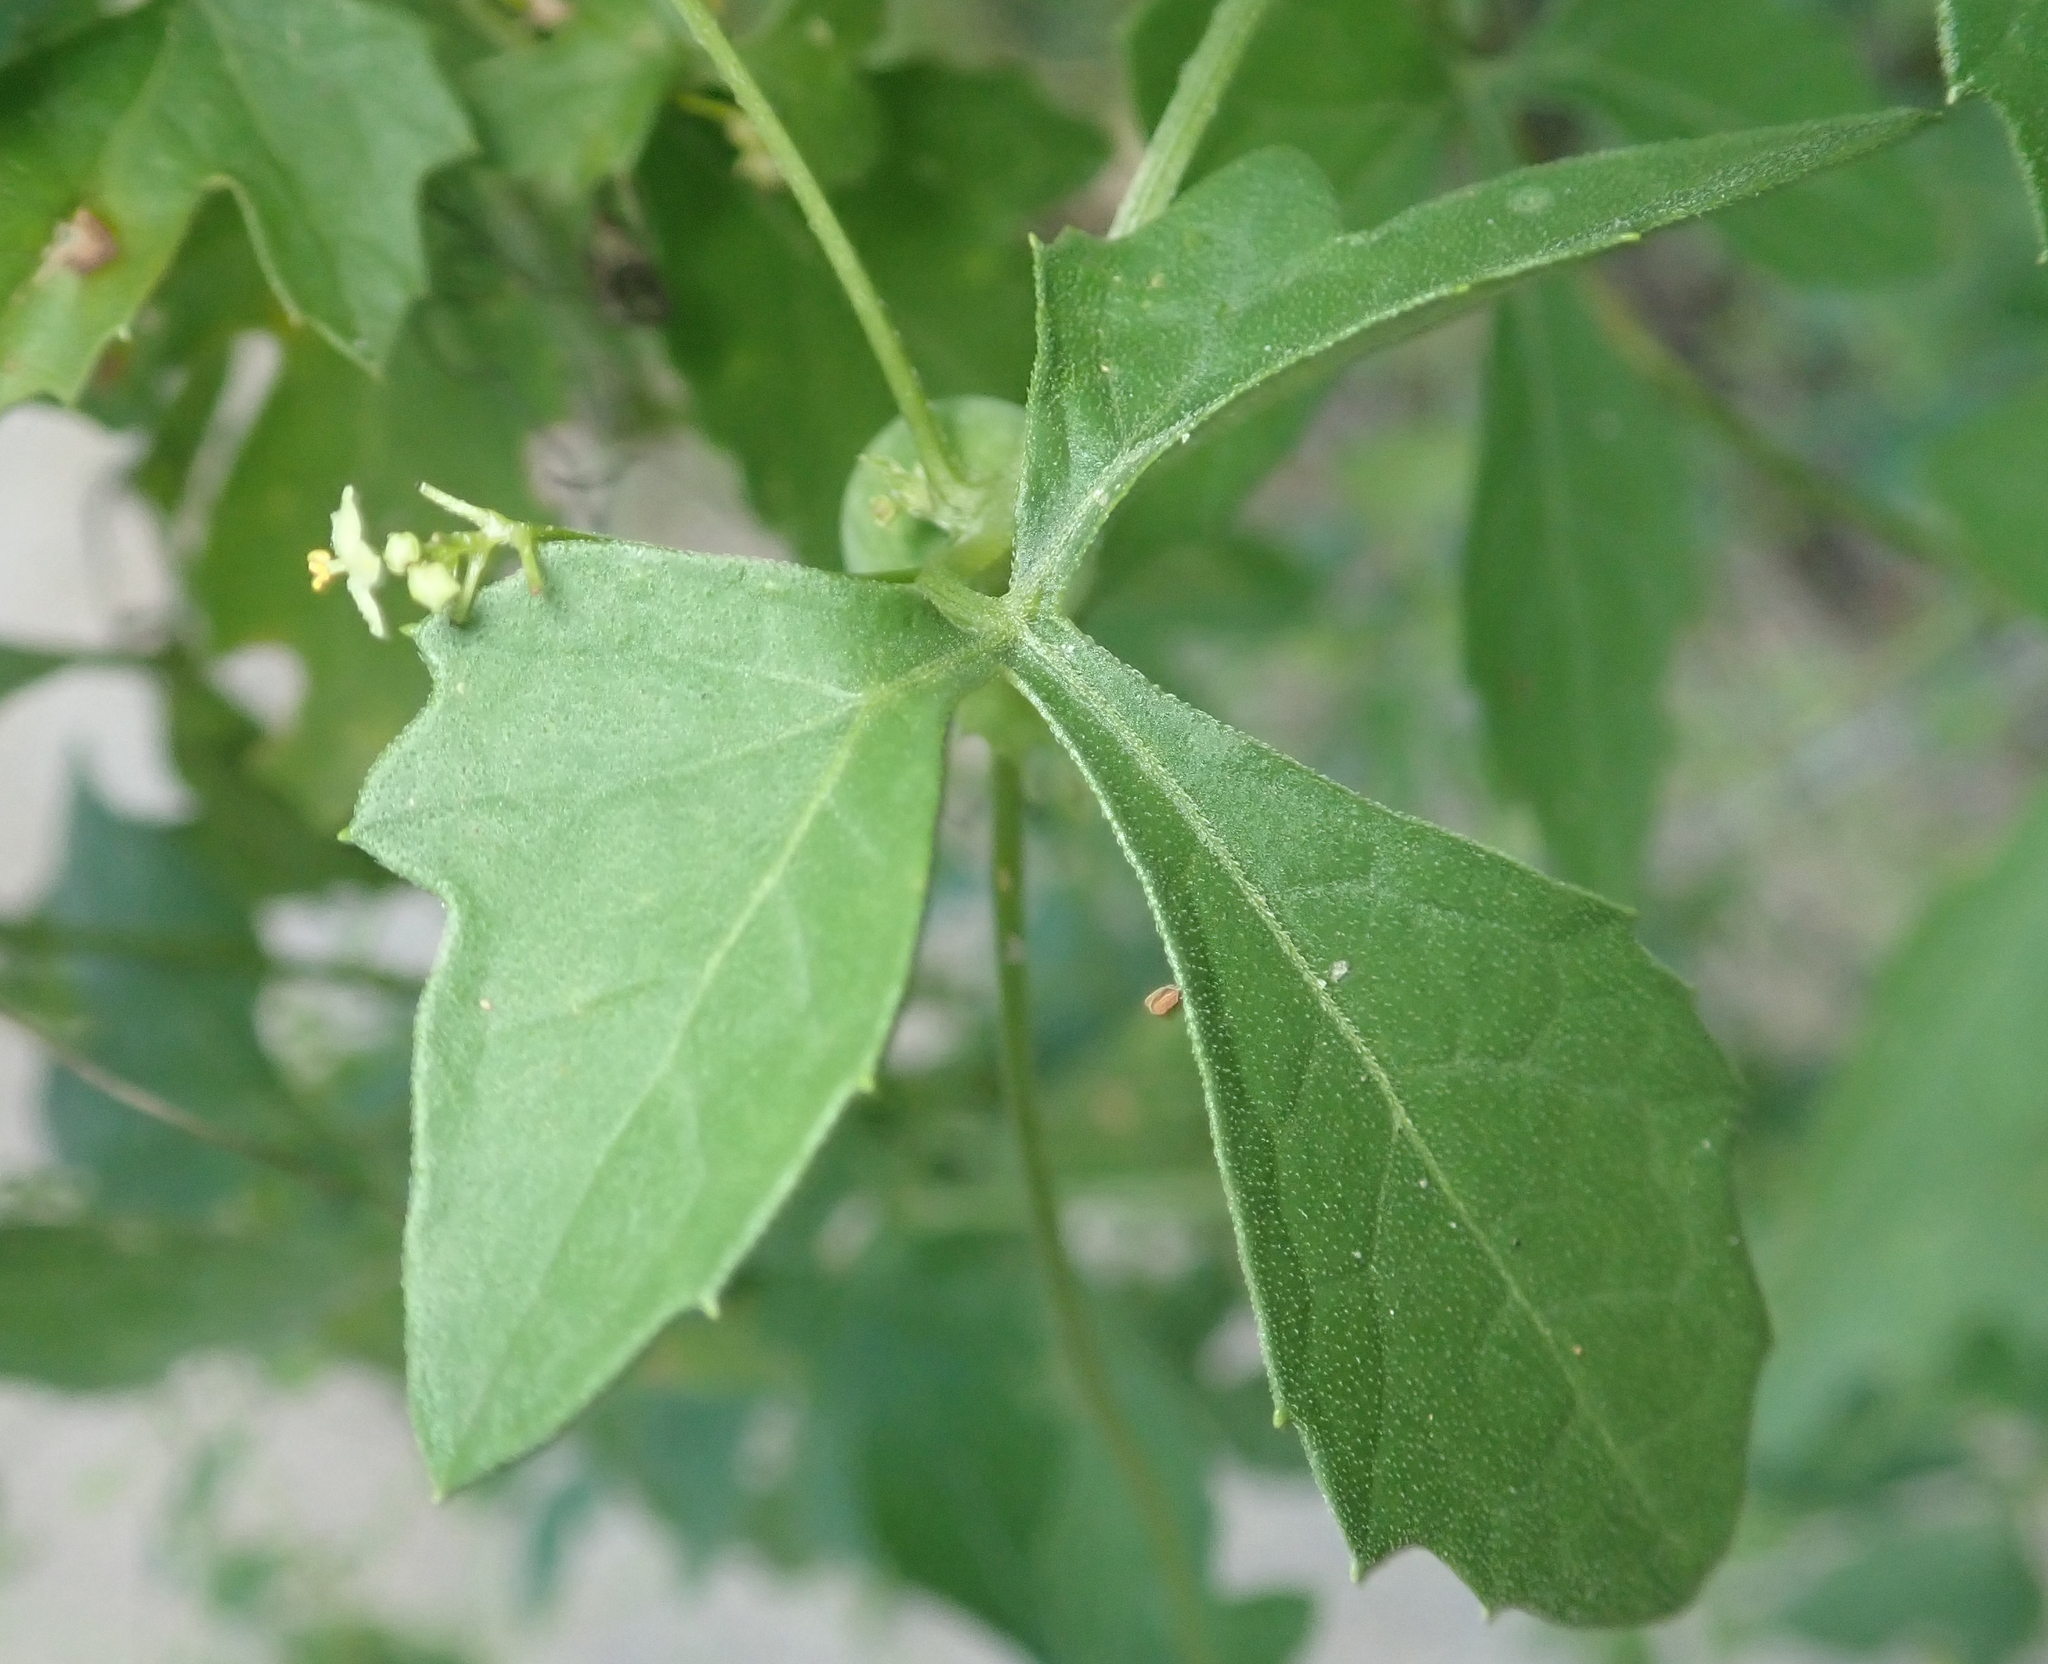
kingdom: Plantae
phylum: Tracheophyta
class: Magnoliopsida
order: Cucurbitales
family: Cucurbitaceae
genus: Blastania
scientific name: Blastania cerasiformis
